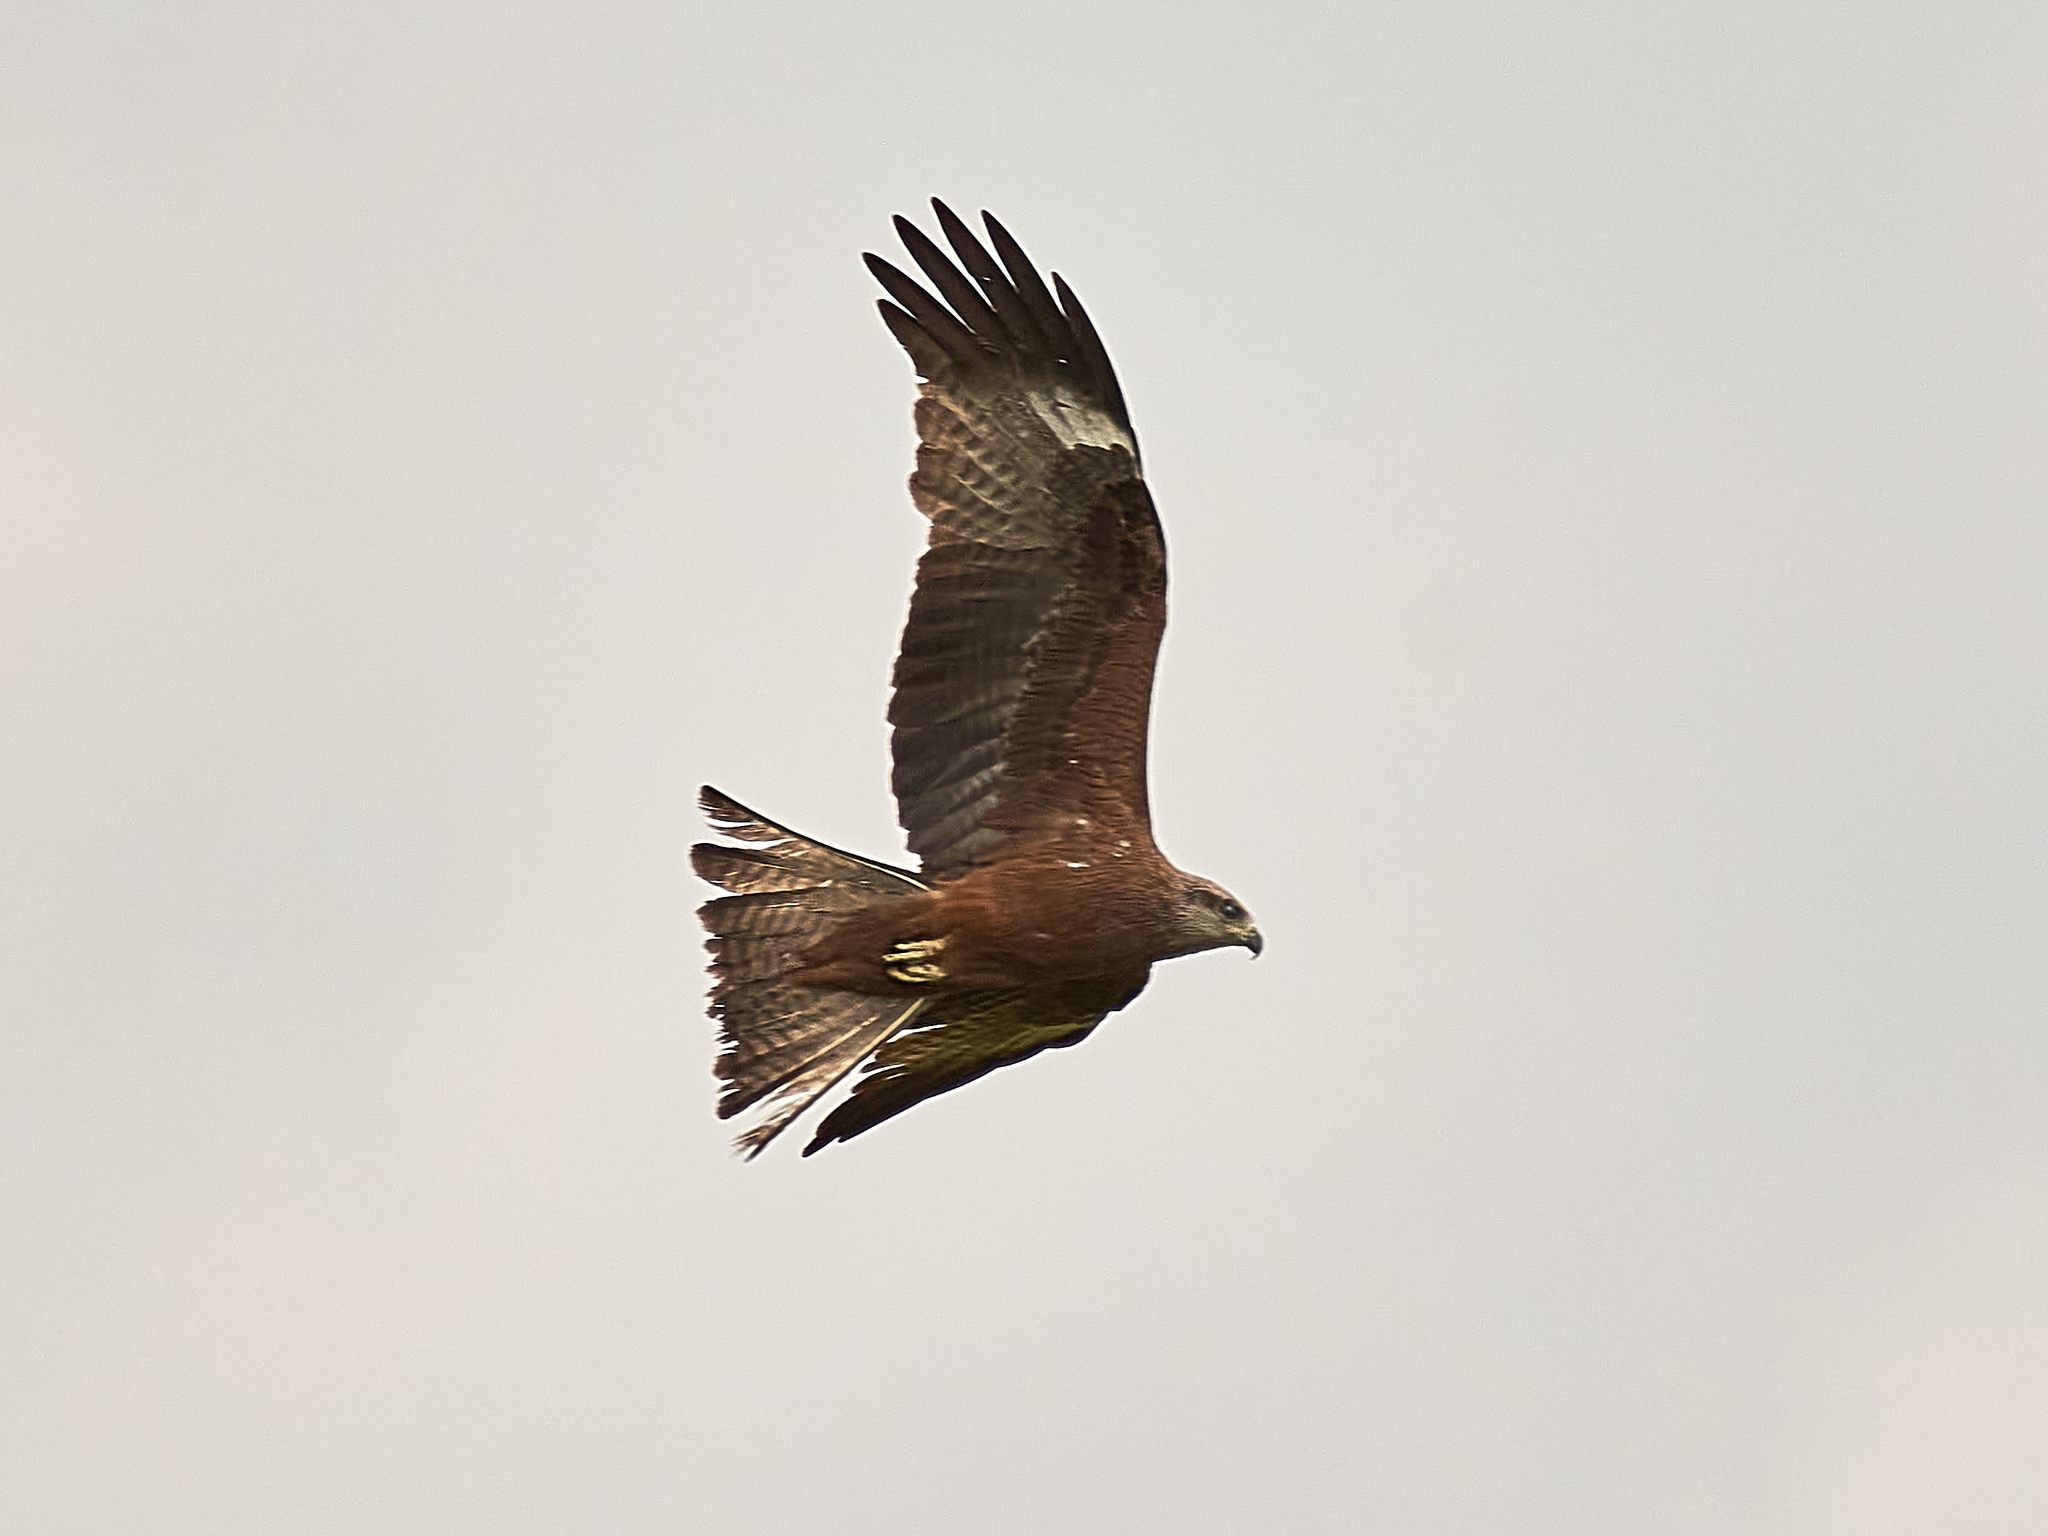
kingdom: Animalia
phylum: Chordata
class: Aves
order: Accipitriformes
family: Accipitridae
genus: Milvus
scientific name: Milvus migrans
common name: Black kite
